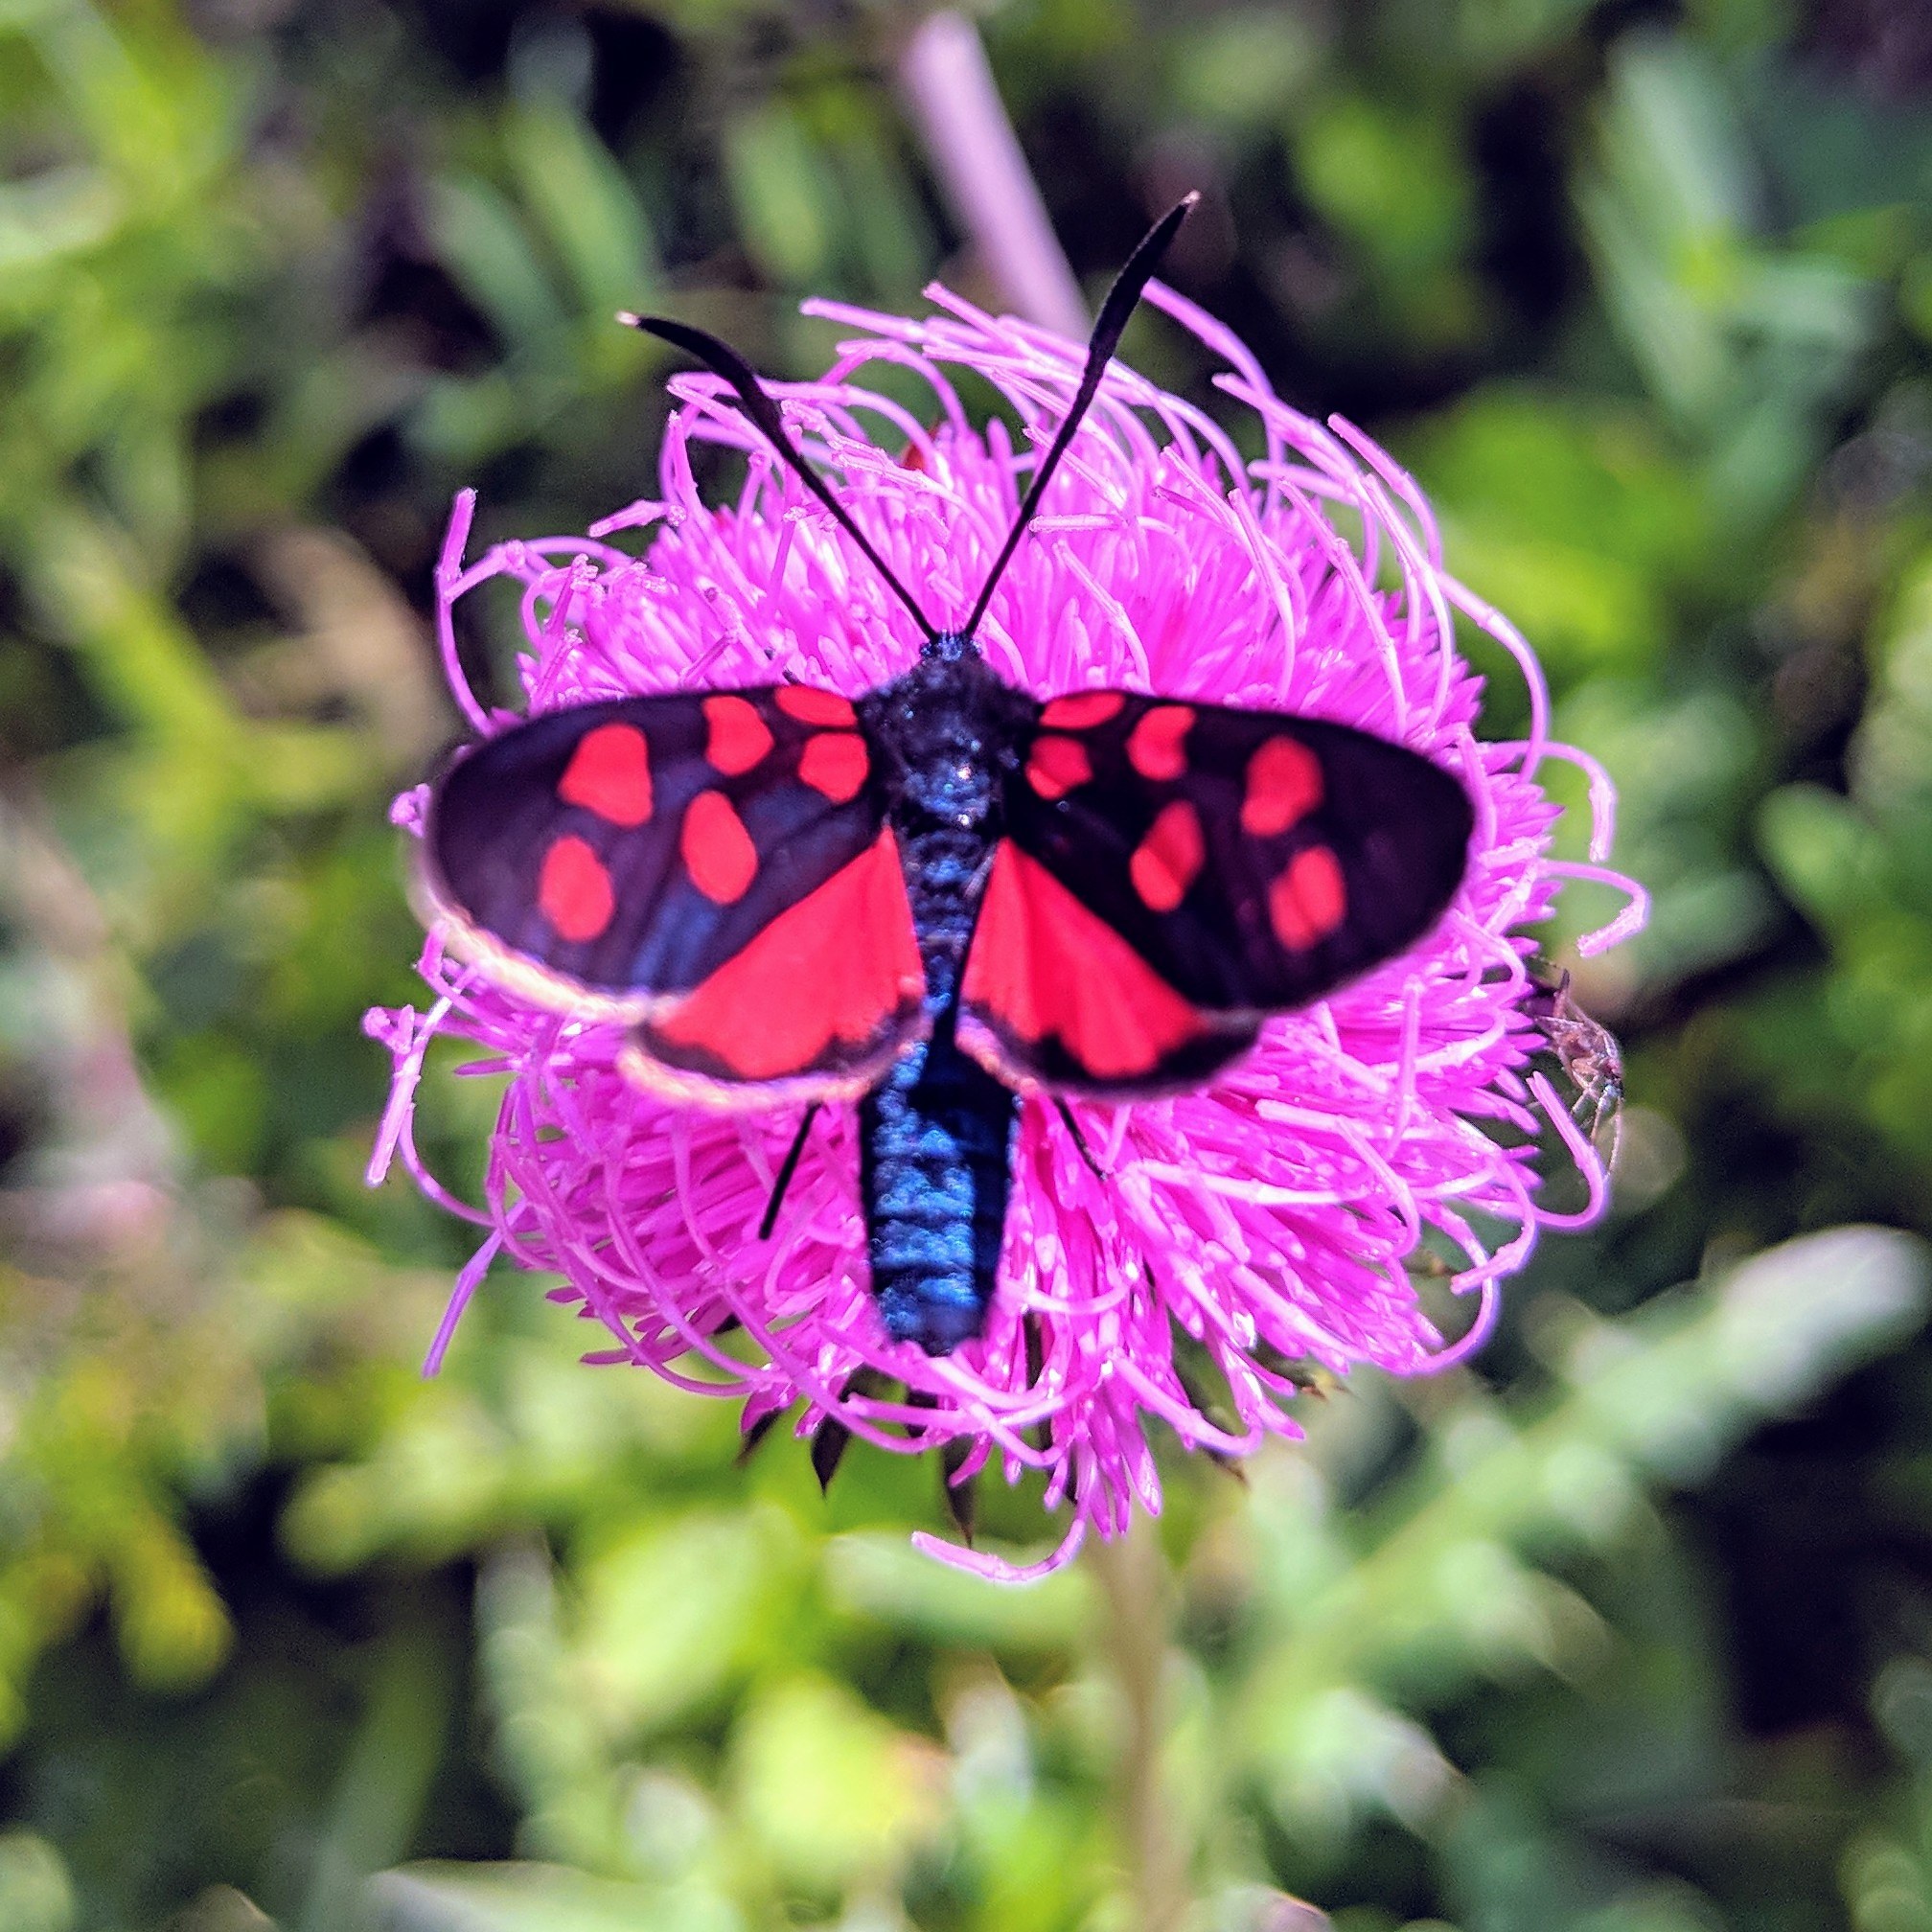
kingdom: Animalia
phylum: Arthropoda
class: Insecta
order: Lepidoptera
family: Zygaenidae
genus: Zygaena
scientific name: Zygaena transalpina
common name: Southern six spot burnet
